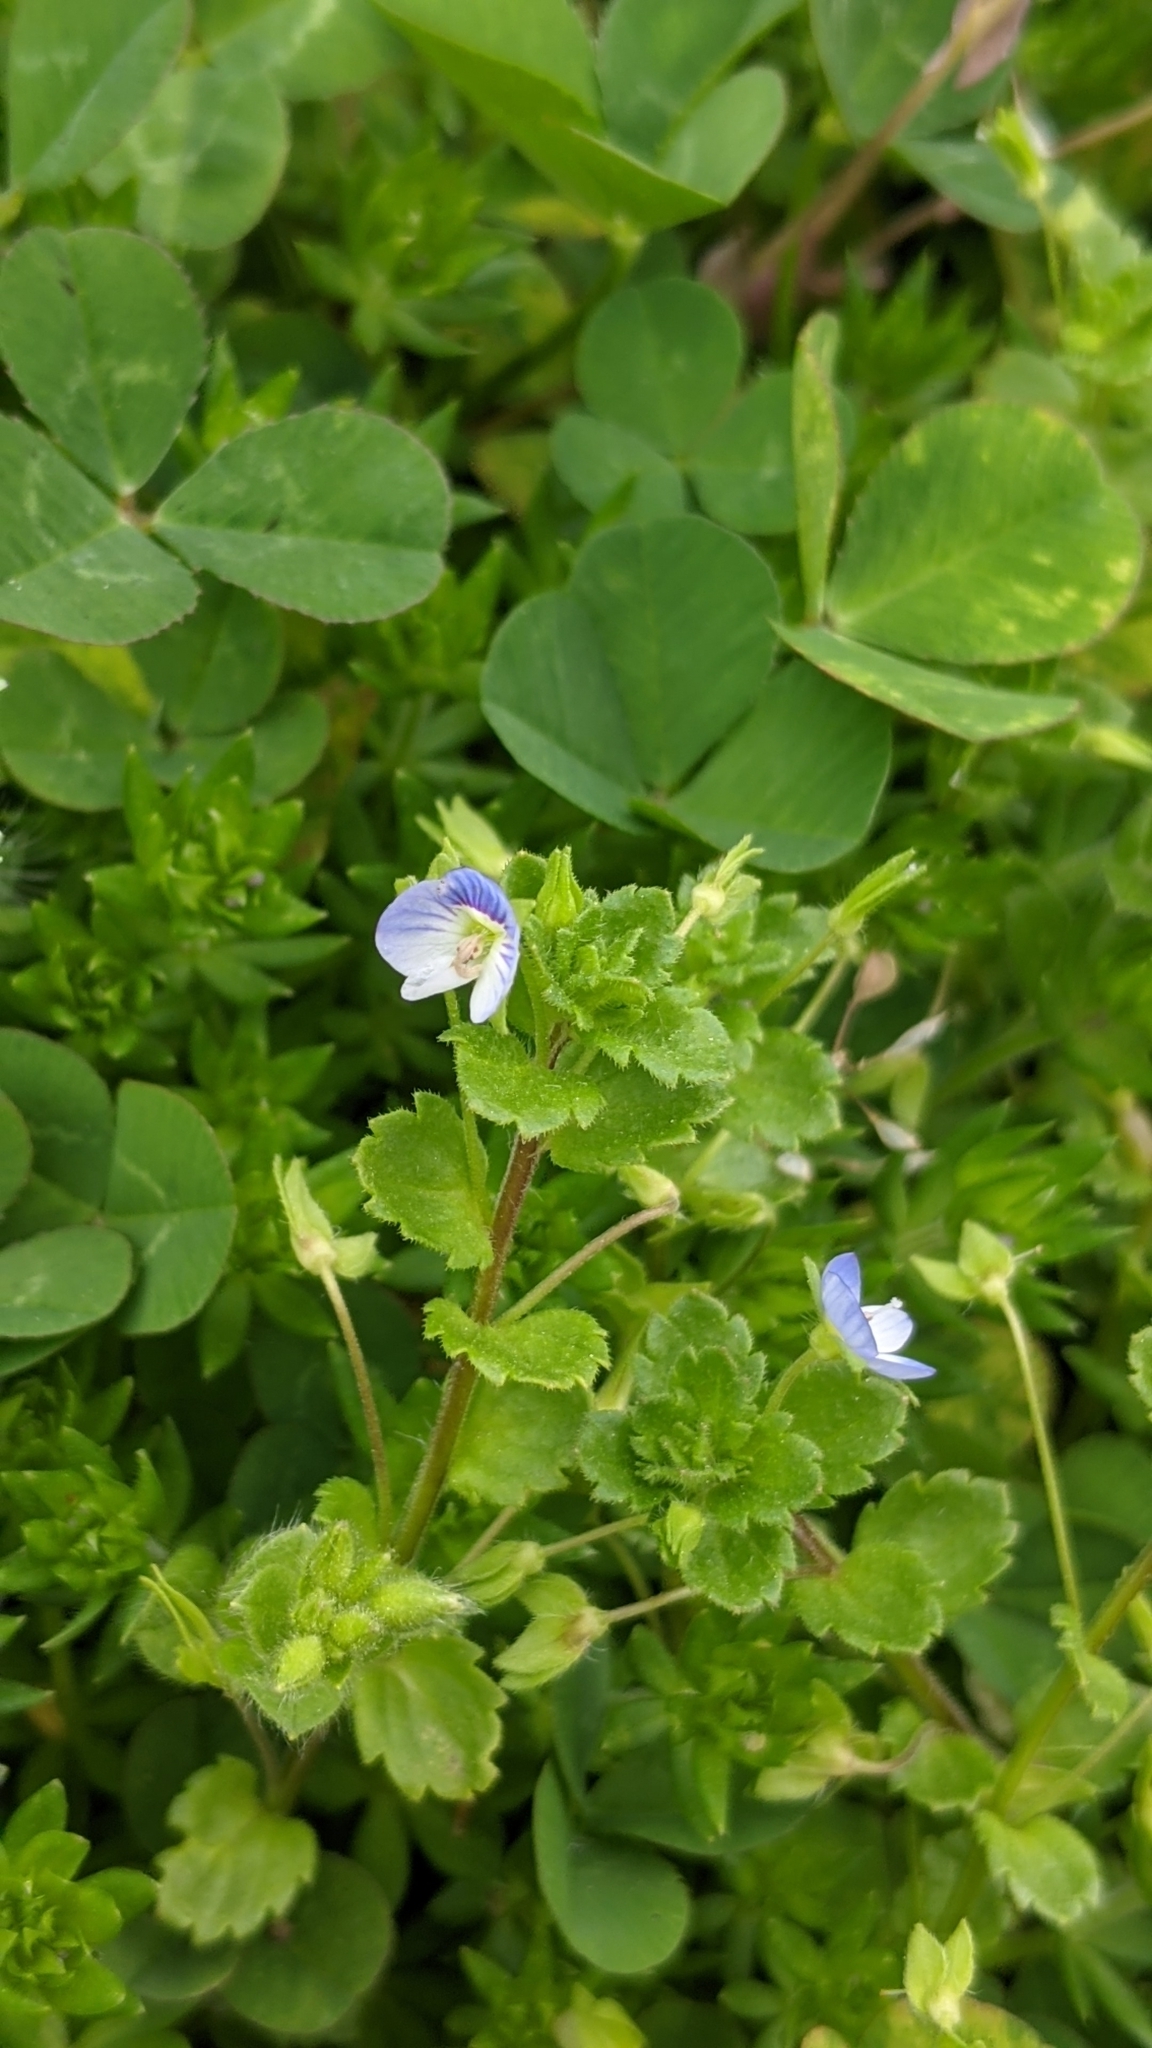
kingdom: Plantae
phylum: Tracheophyta
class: Magnoliopsida
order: Lamiales
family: Plantaginaceae
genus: Veronica
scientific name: Veronica persica
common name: Common field-speedwell
